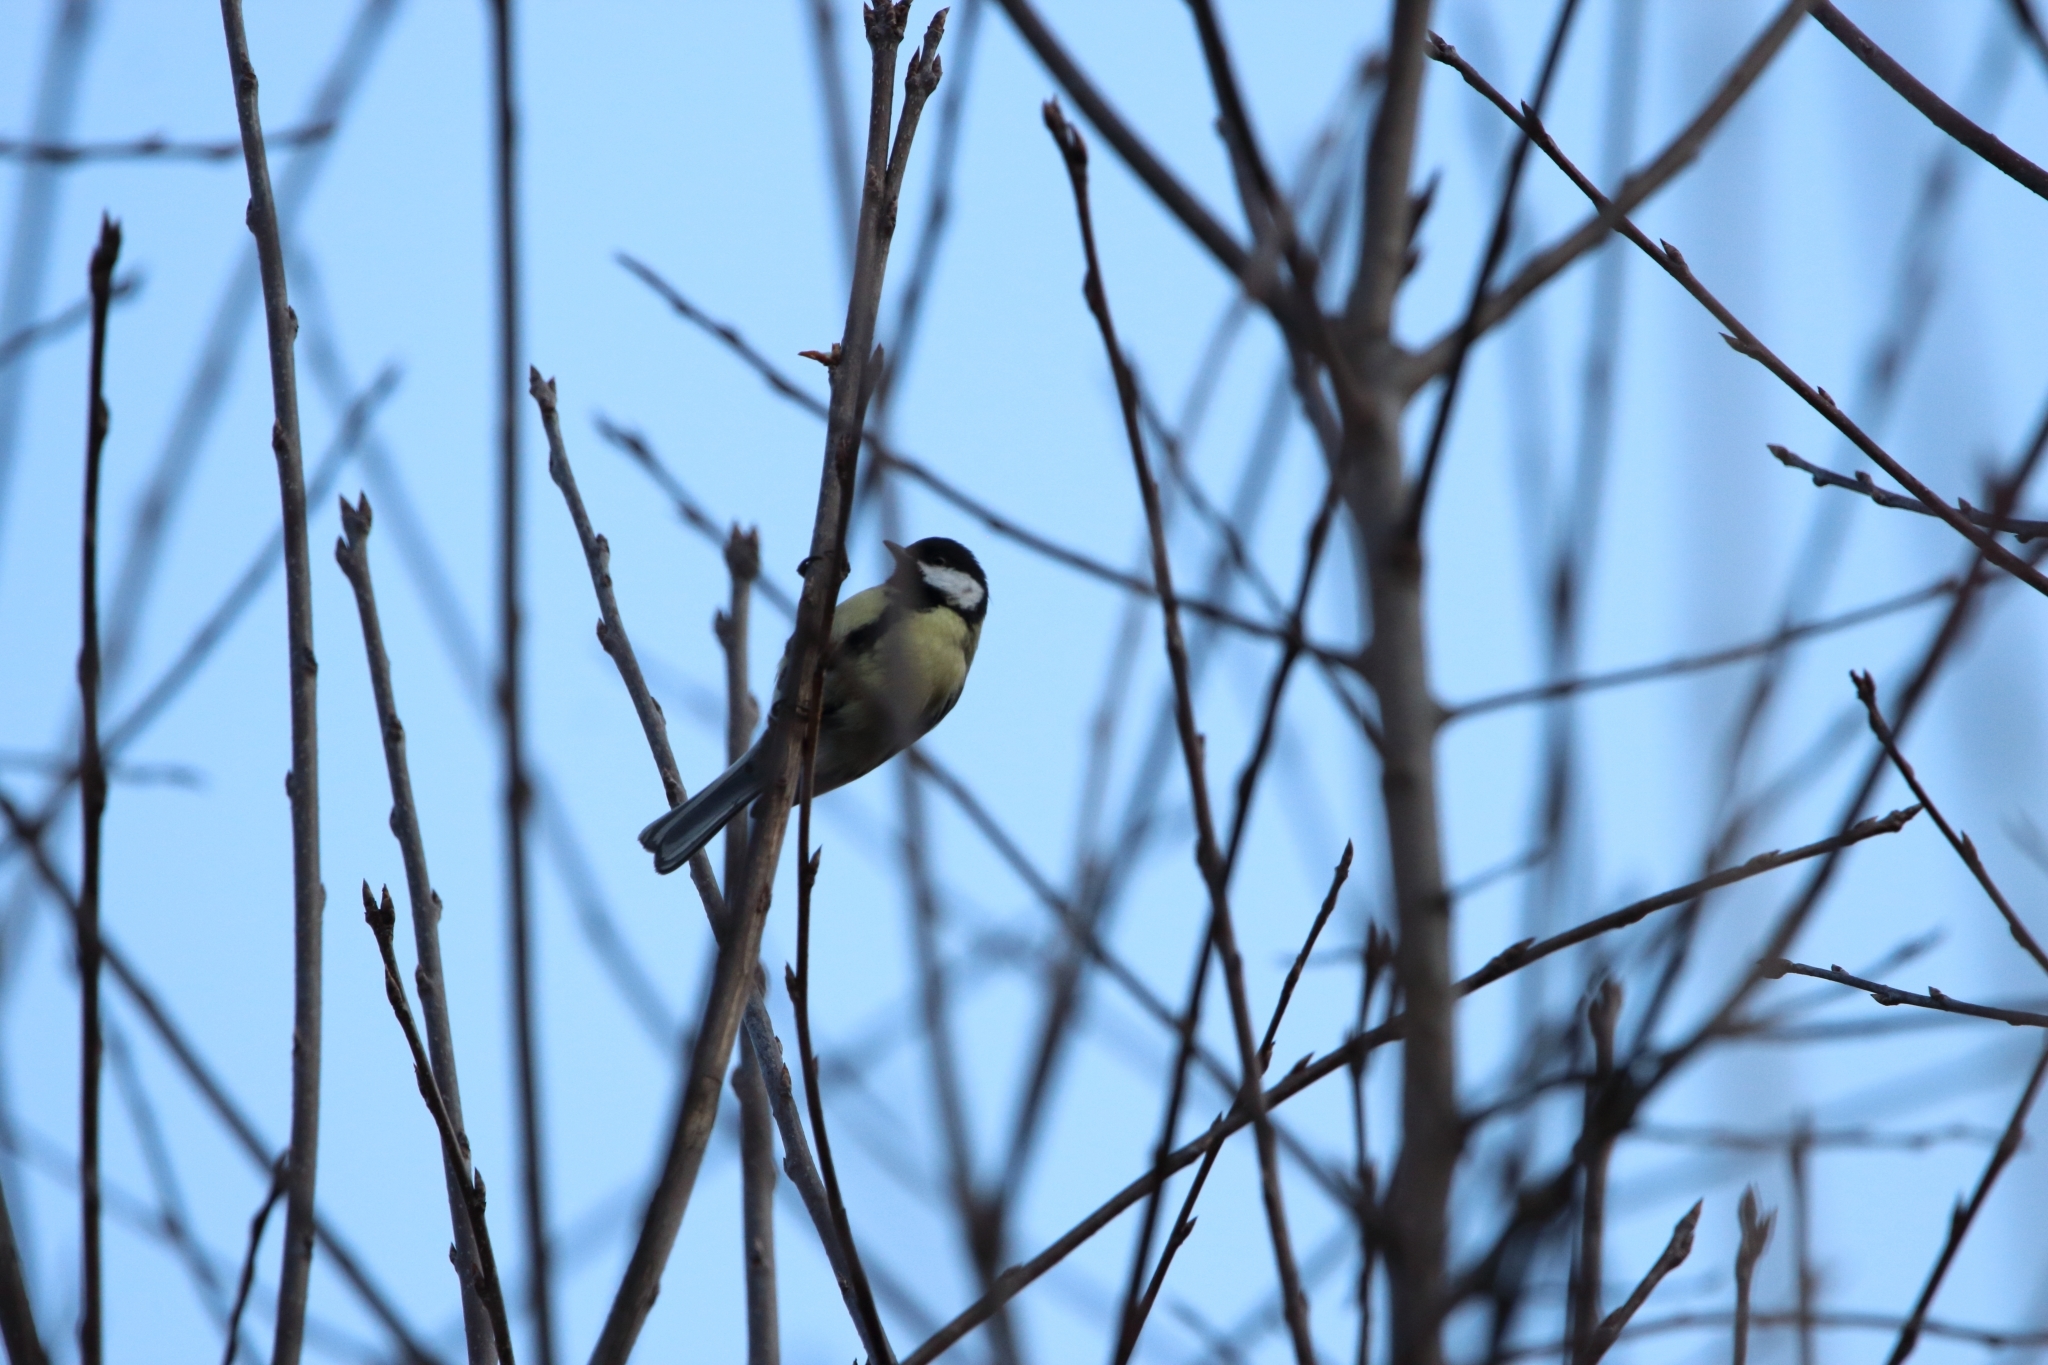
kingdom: Animalia
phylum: Chordata
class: Aves
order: Passeriformes
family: Paridae
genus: Parus
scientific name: Parus major
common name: Great tit
